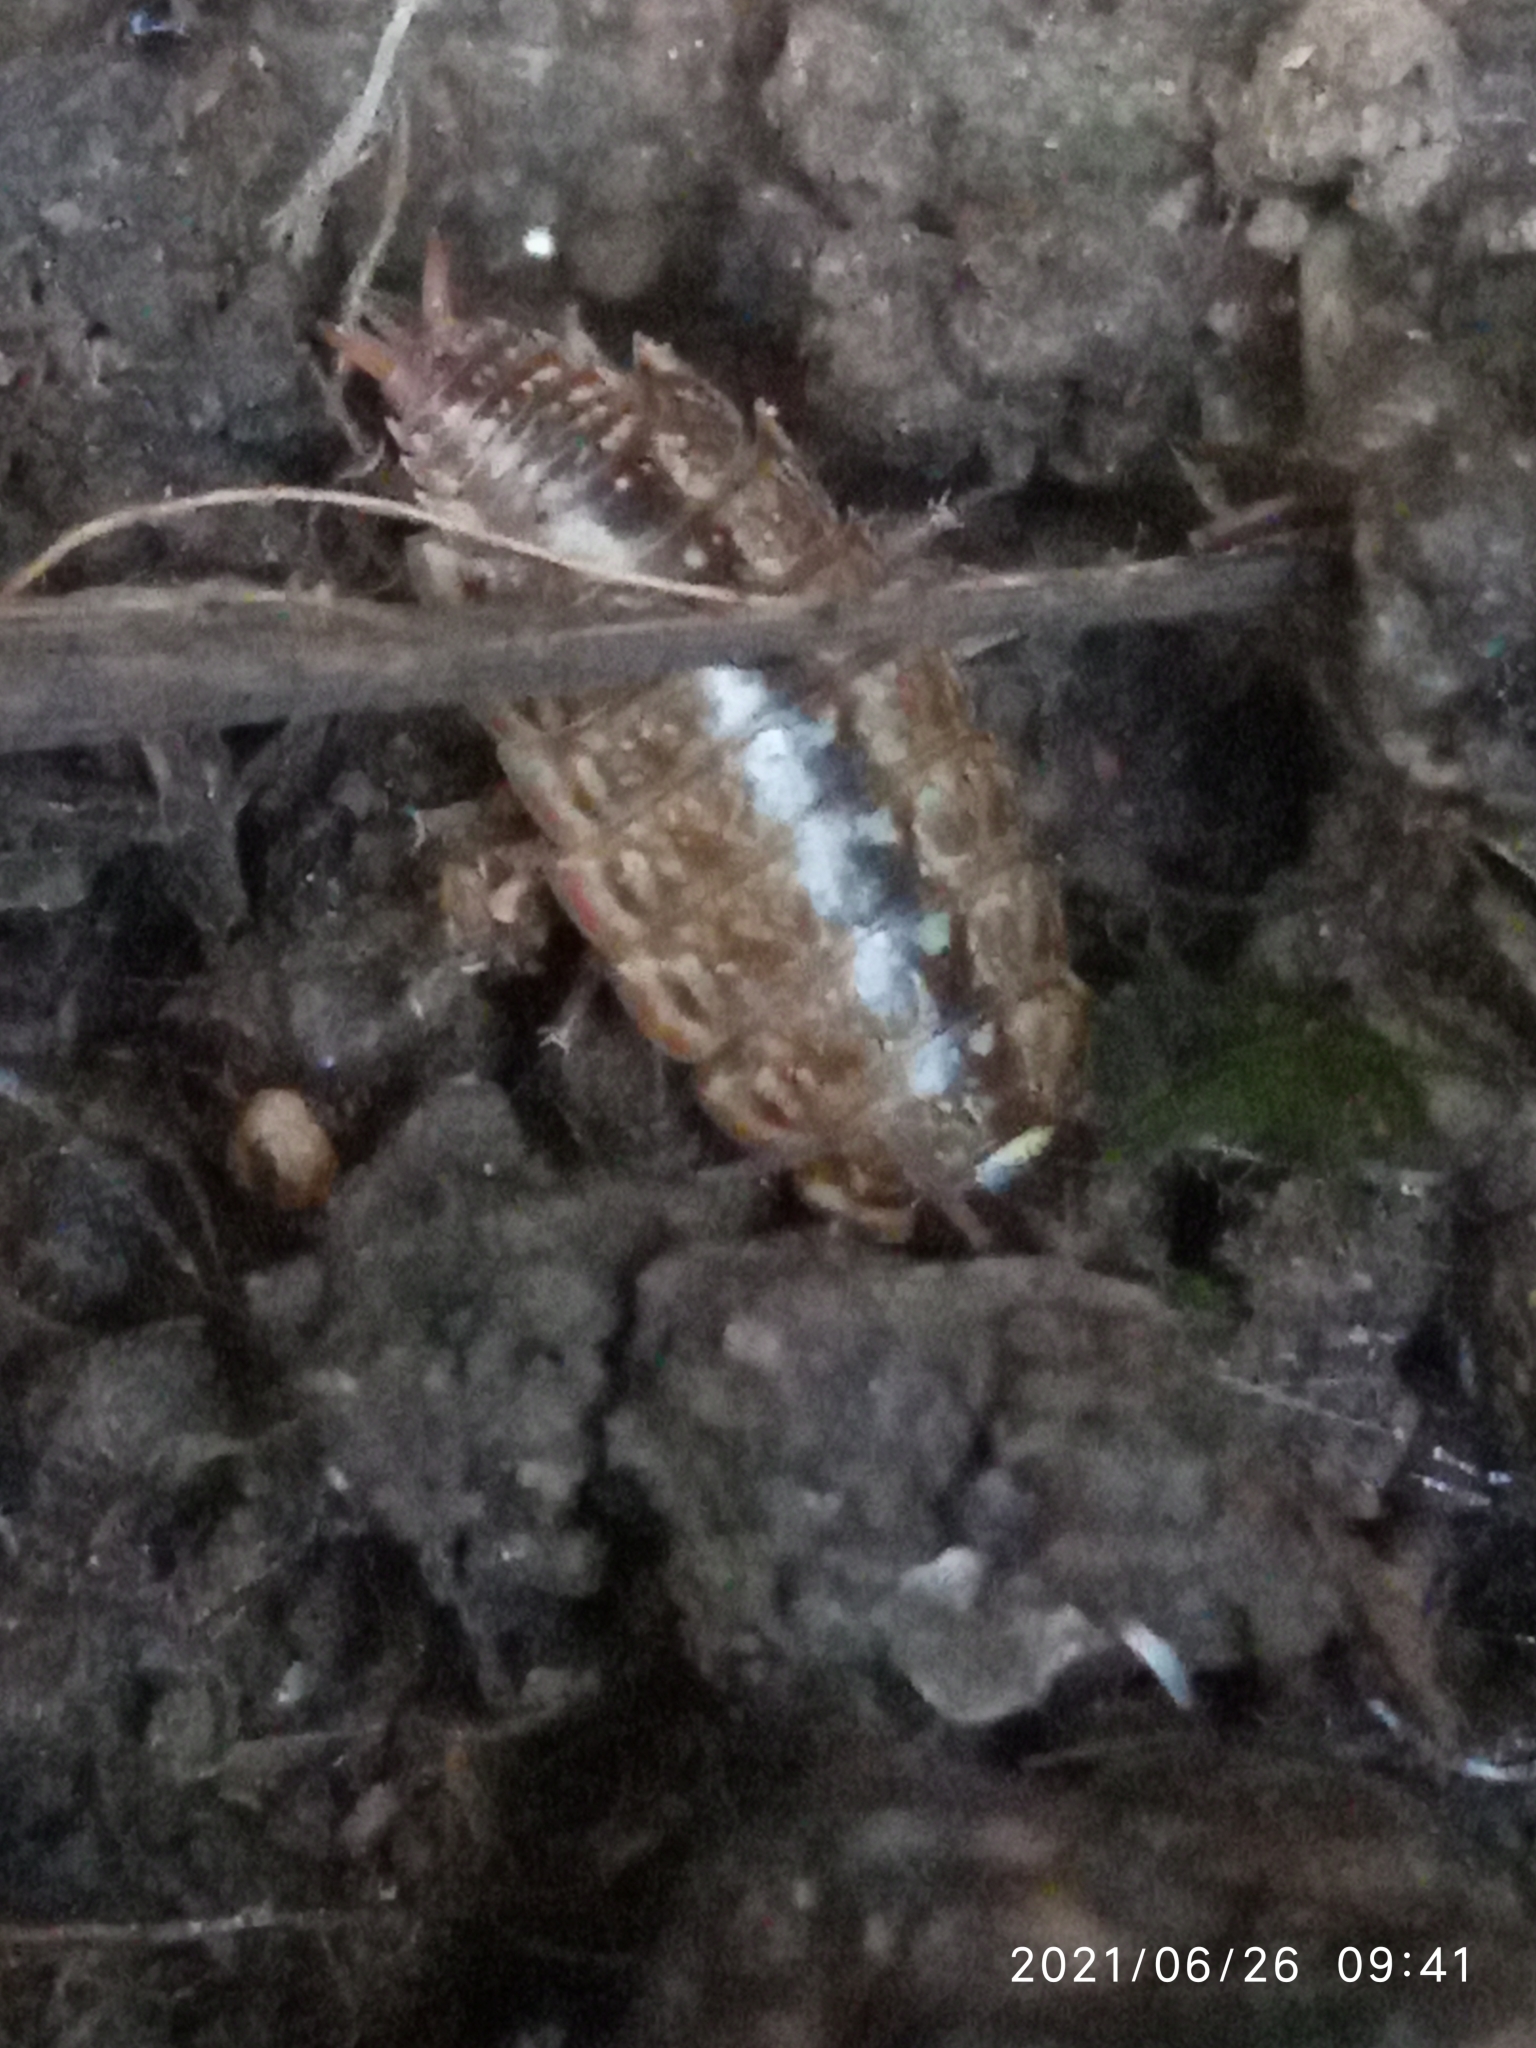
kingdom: Animalia
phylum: Arthropoda
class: Malacostraca
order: Isopoda
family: Philosciidae
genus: Philoscia
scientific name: Philoscia muscorum
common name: Common striped woodlouse
